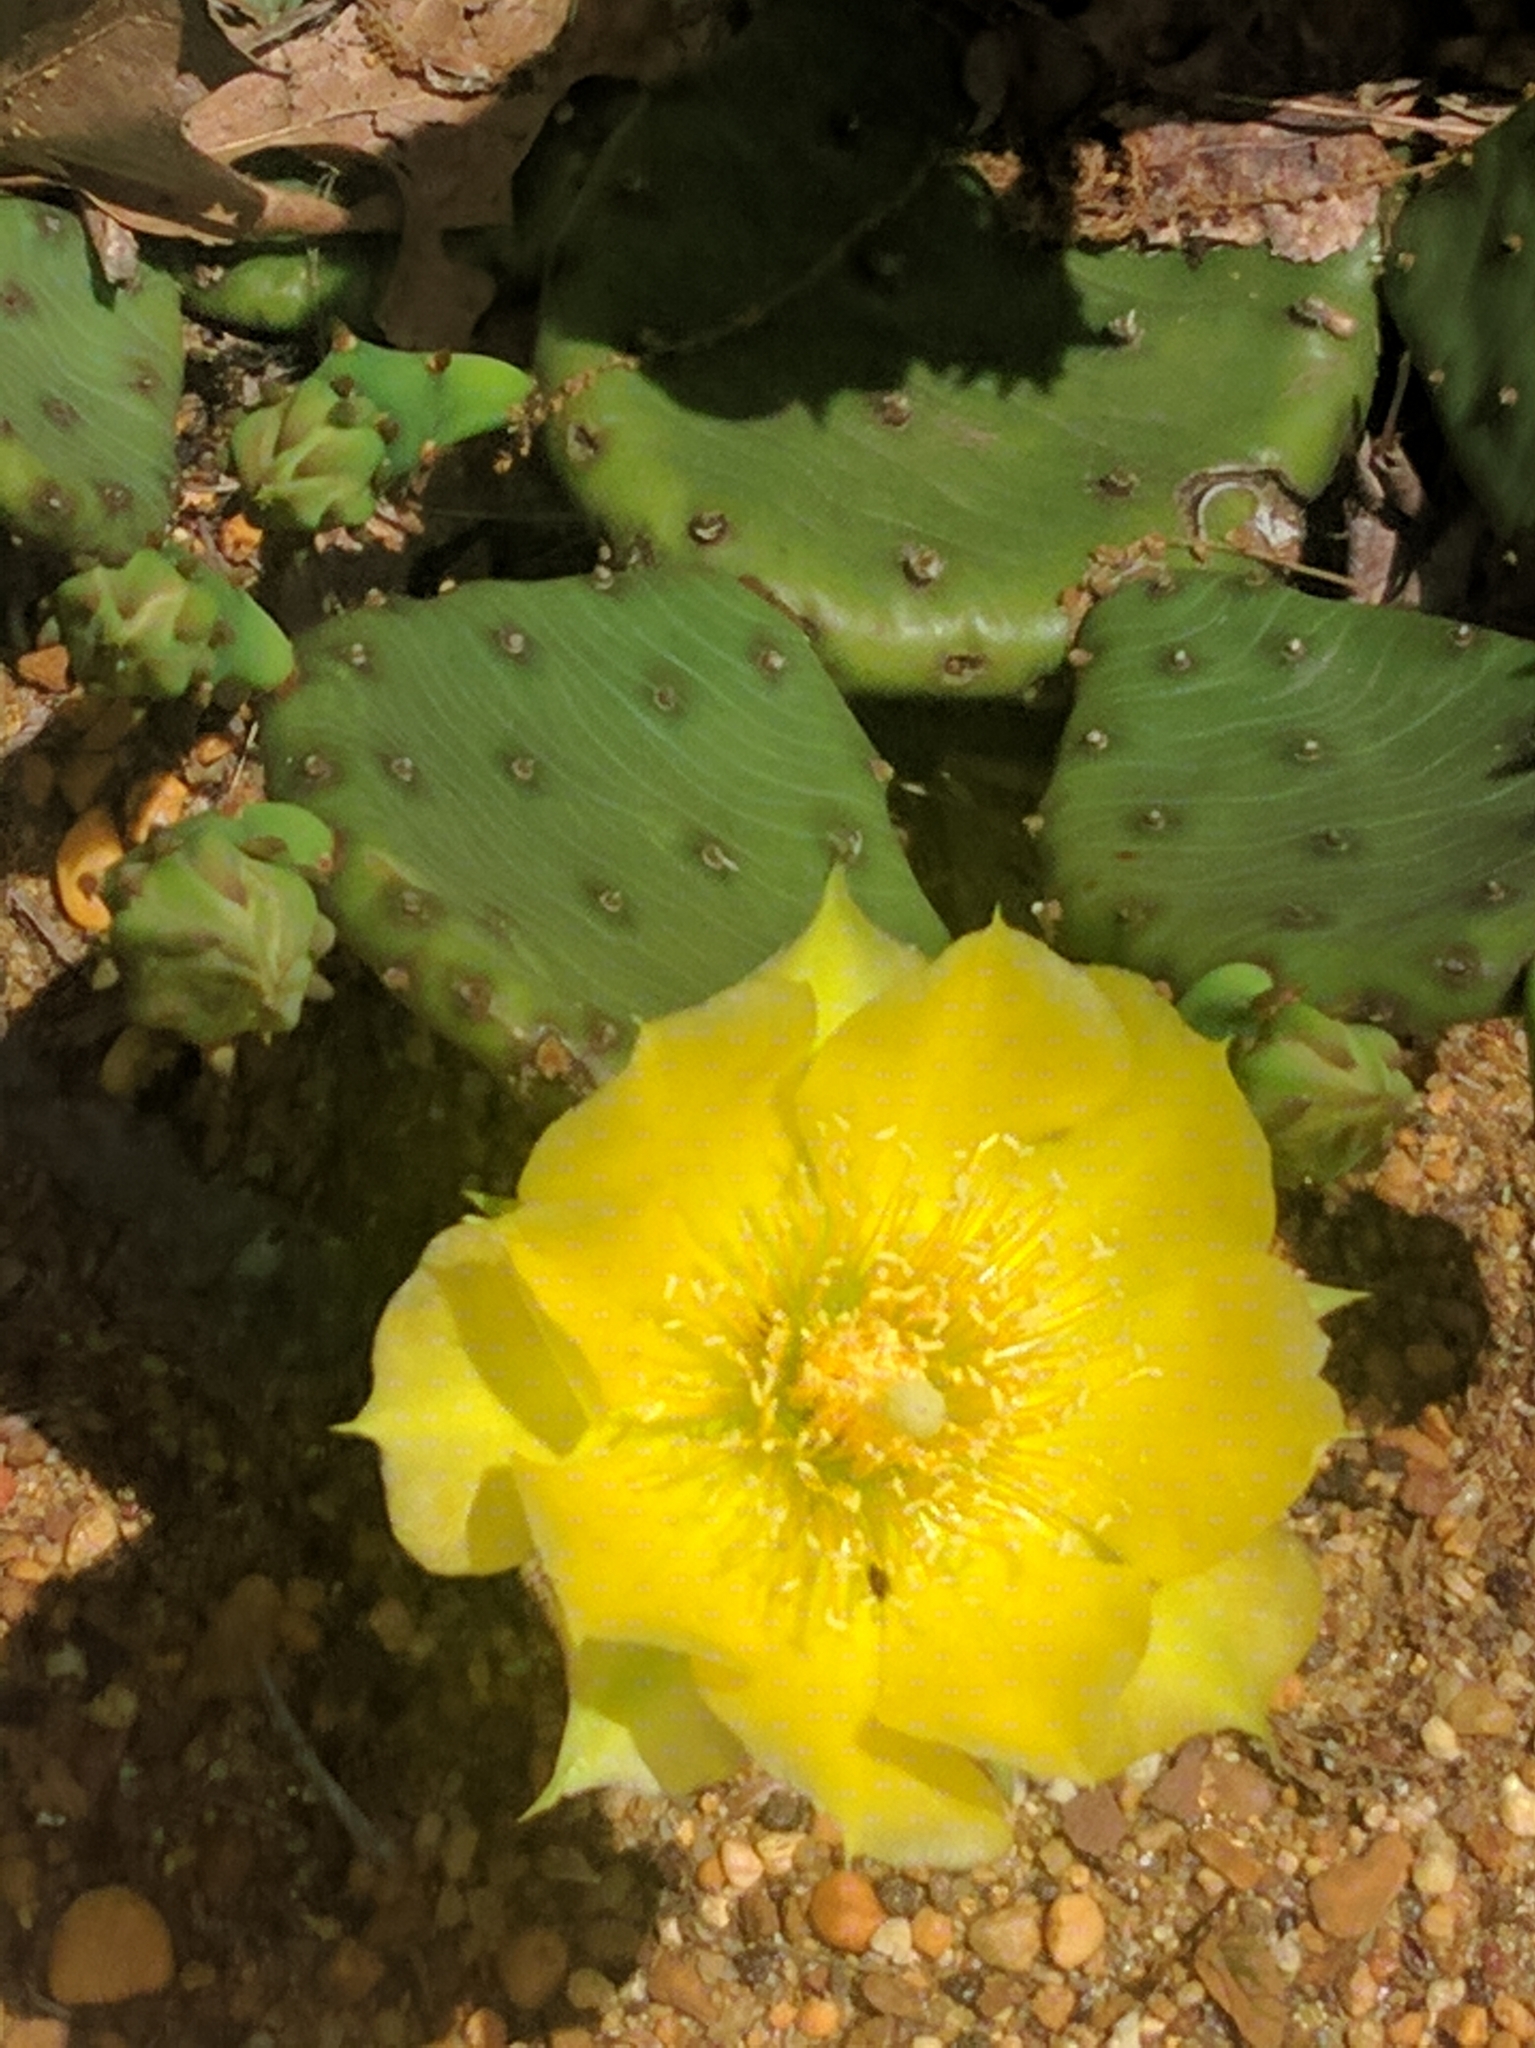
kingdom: Plantae
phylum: Tracheophyta
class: Magnoliopsida
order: Caryophyllales
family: Cactaceae
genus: Opuntia
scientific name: Opuntia humifusa
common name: Eastern prickly-pear
